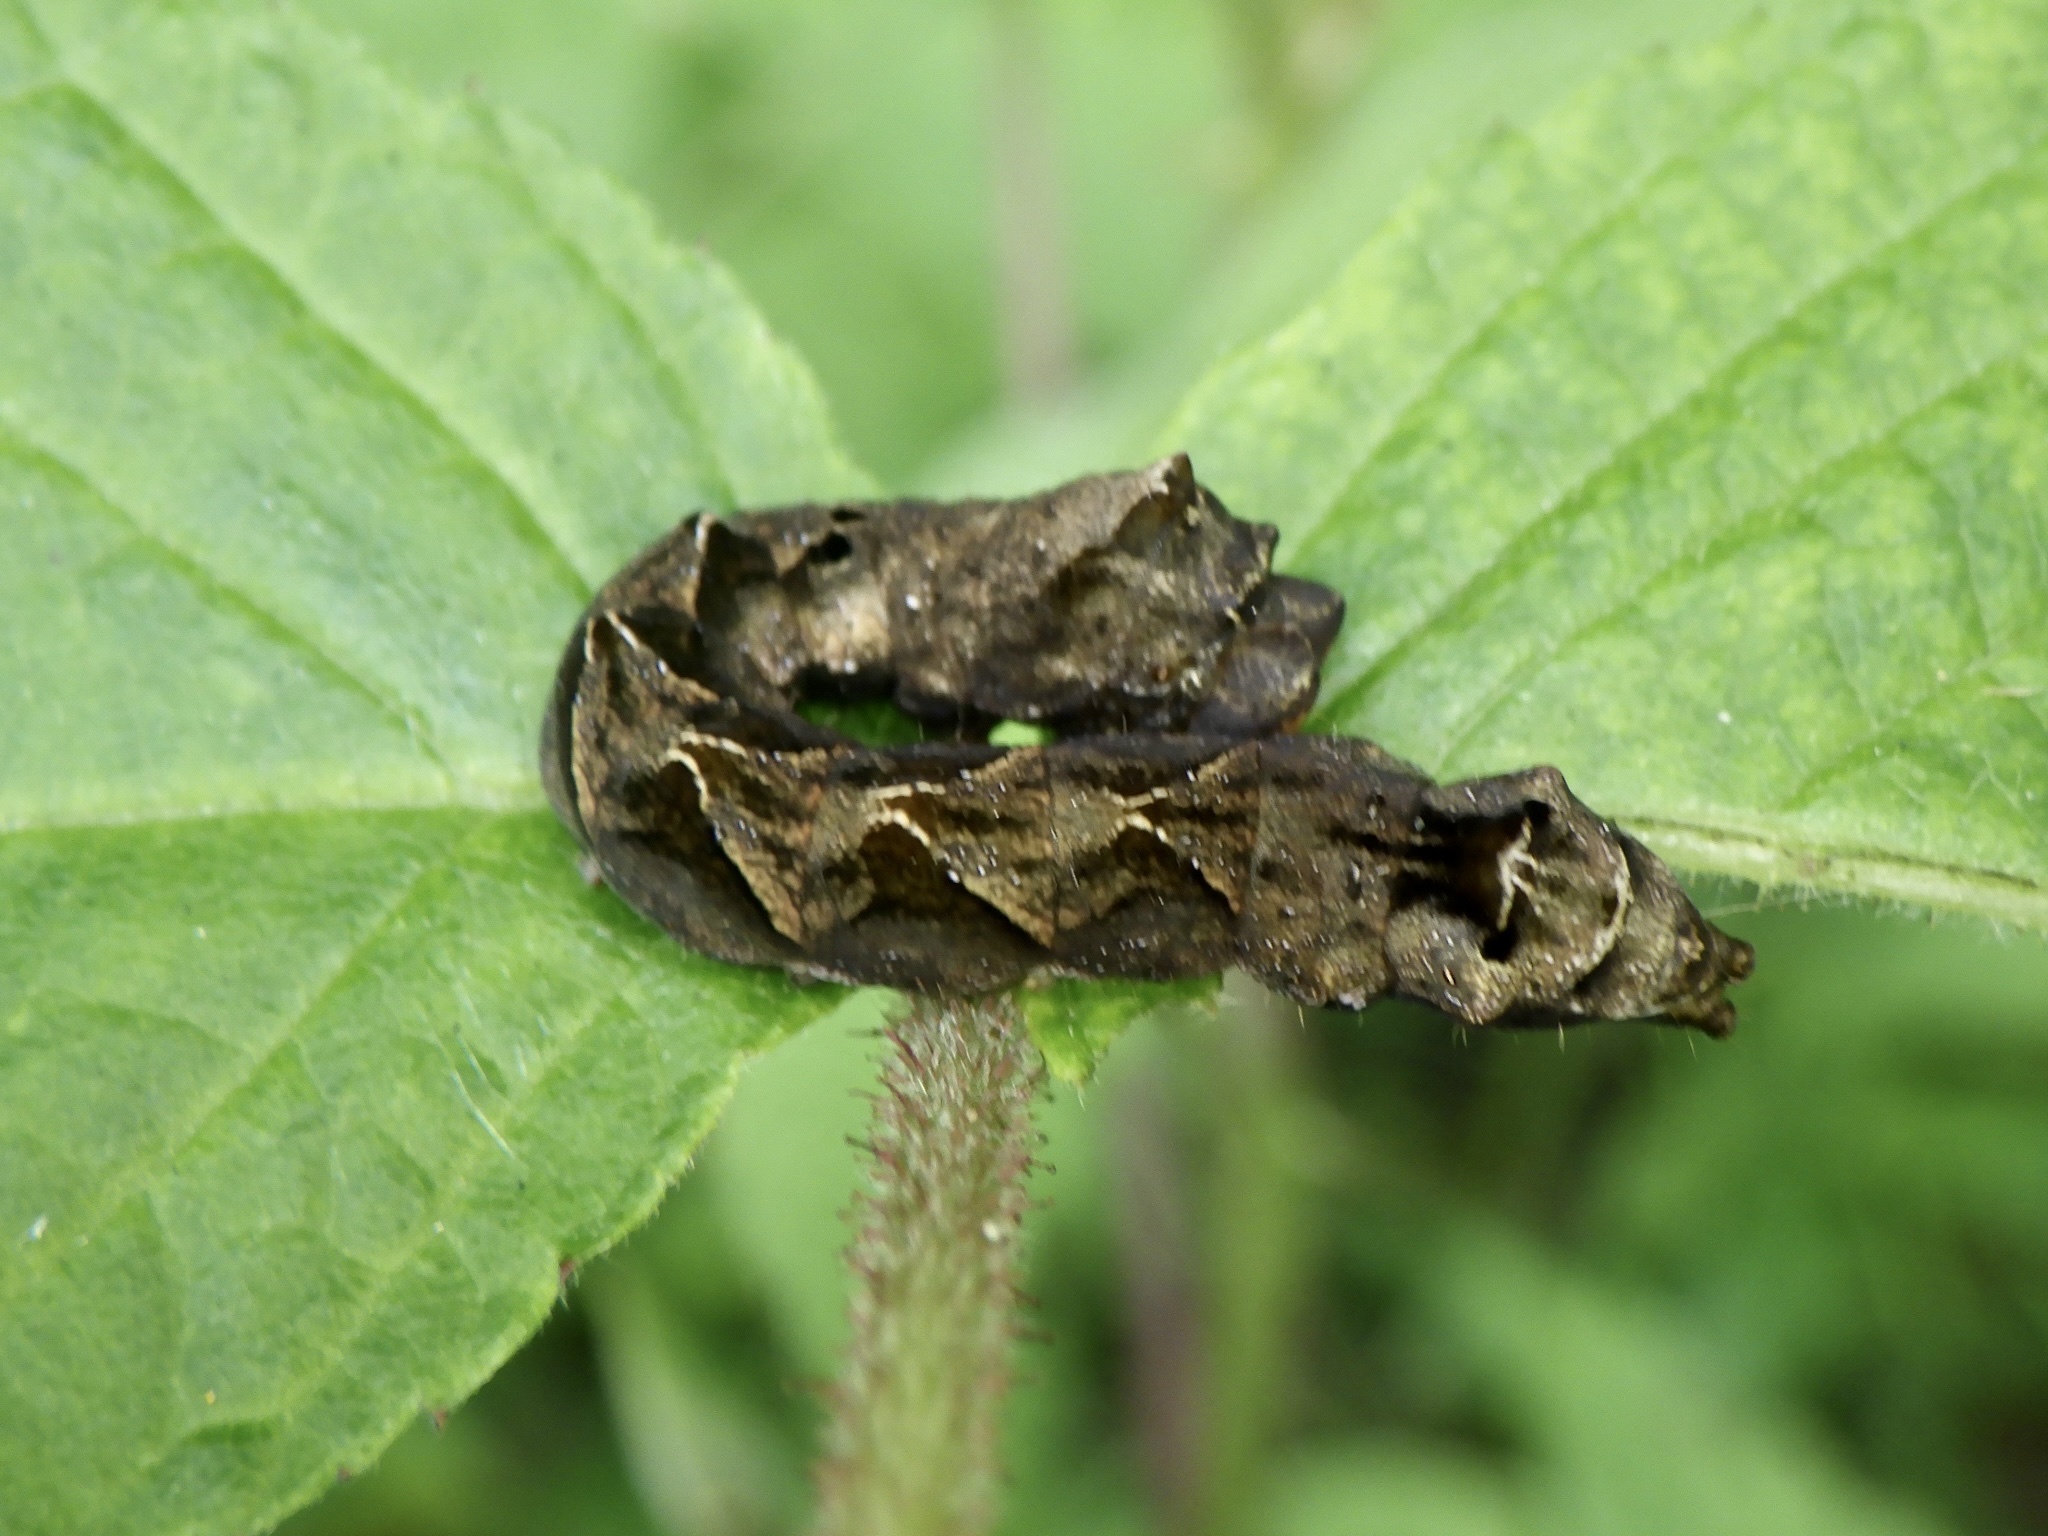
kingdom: Animalia
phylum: Arthropoda
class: Insecta
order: Lepidoptera
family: Drepanidae
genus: Thyatira
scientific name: Thyatira batis
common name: Peach blossom
